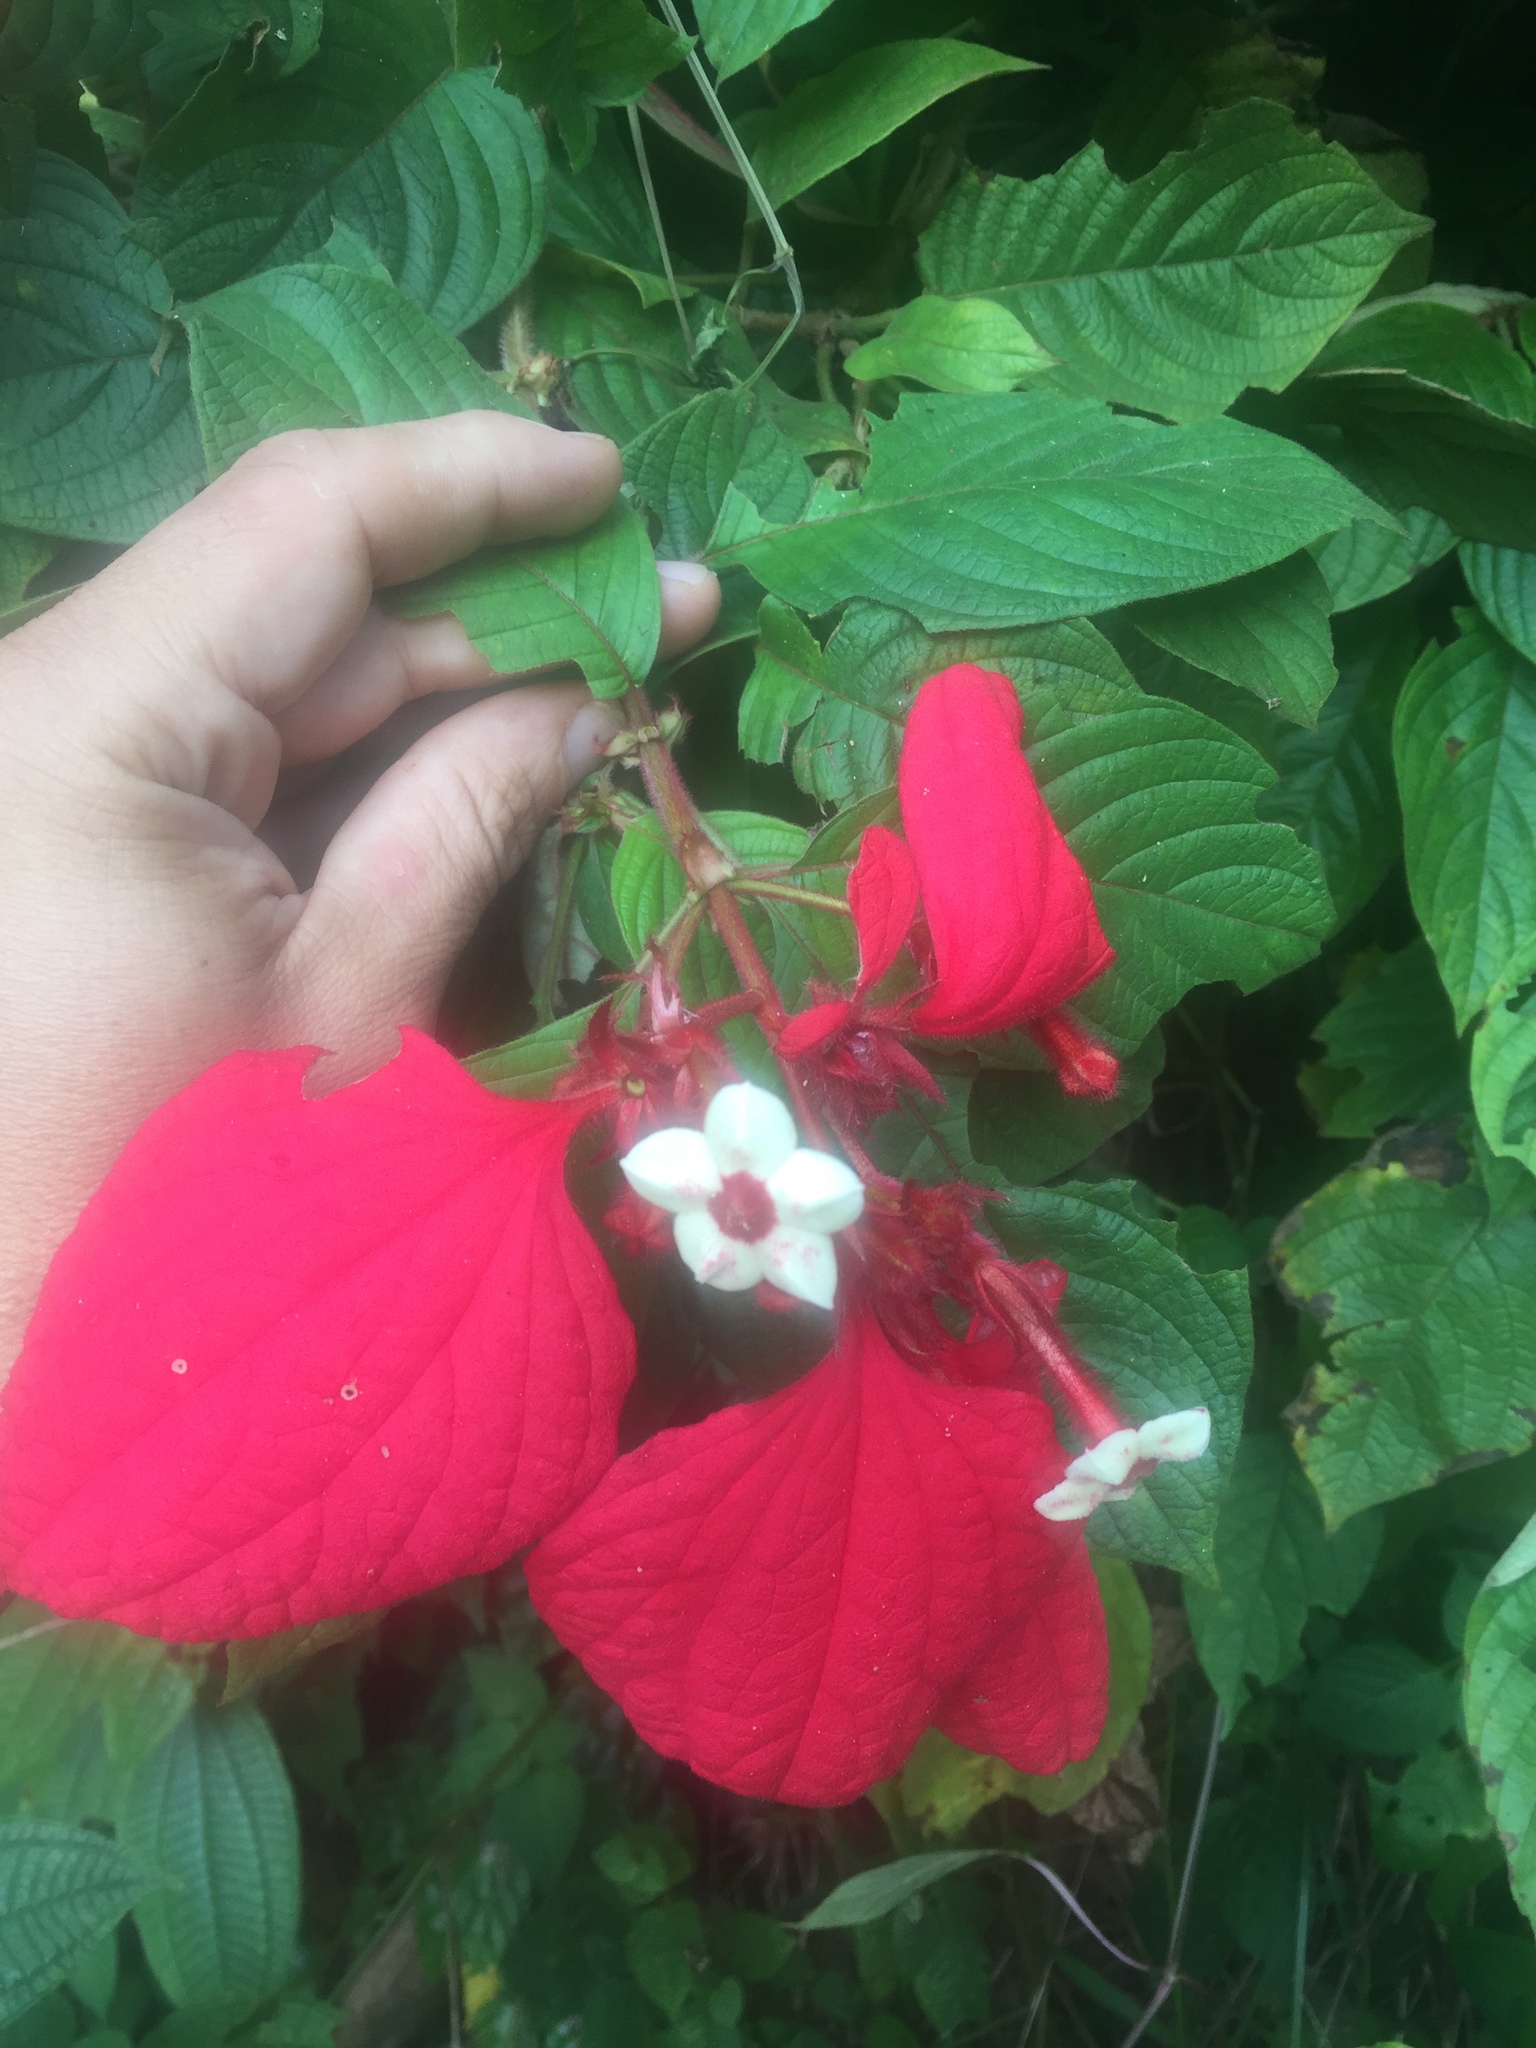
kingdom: Plantae
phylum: Tracheophyta
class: Magnoliopsida
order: Gentianales
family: Rubiaceae
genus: Mussaenda
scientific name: Mussaenda erythrophylla
